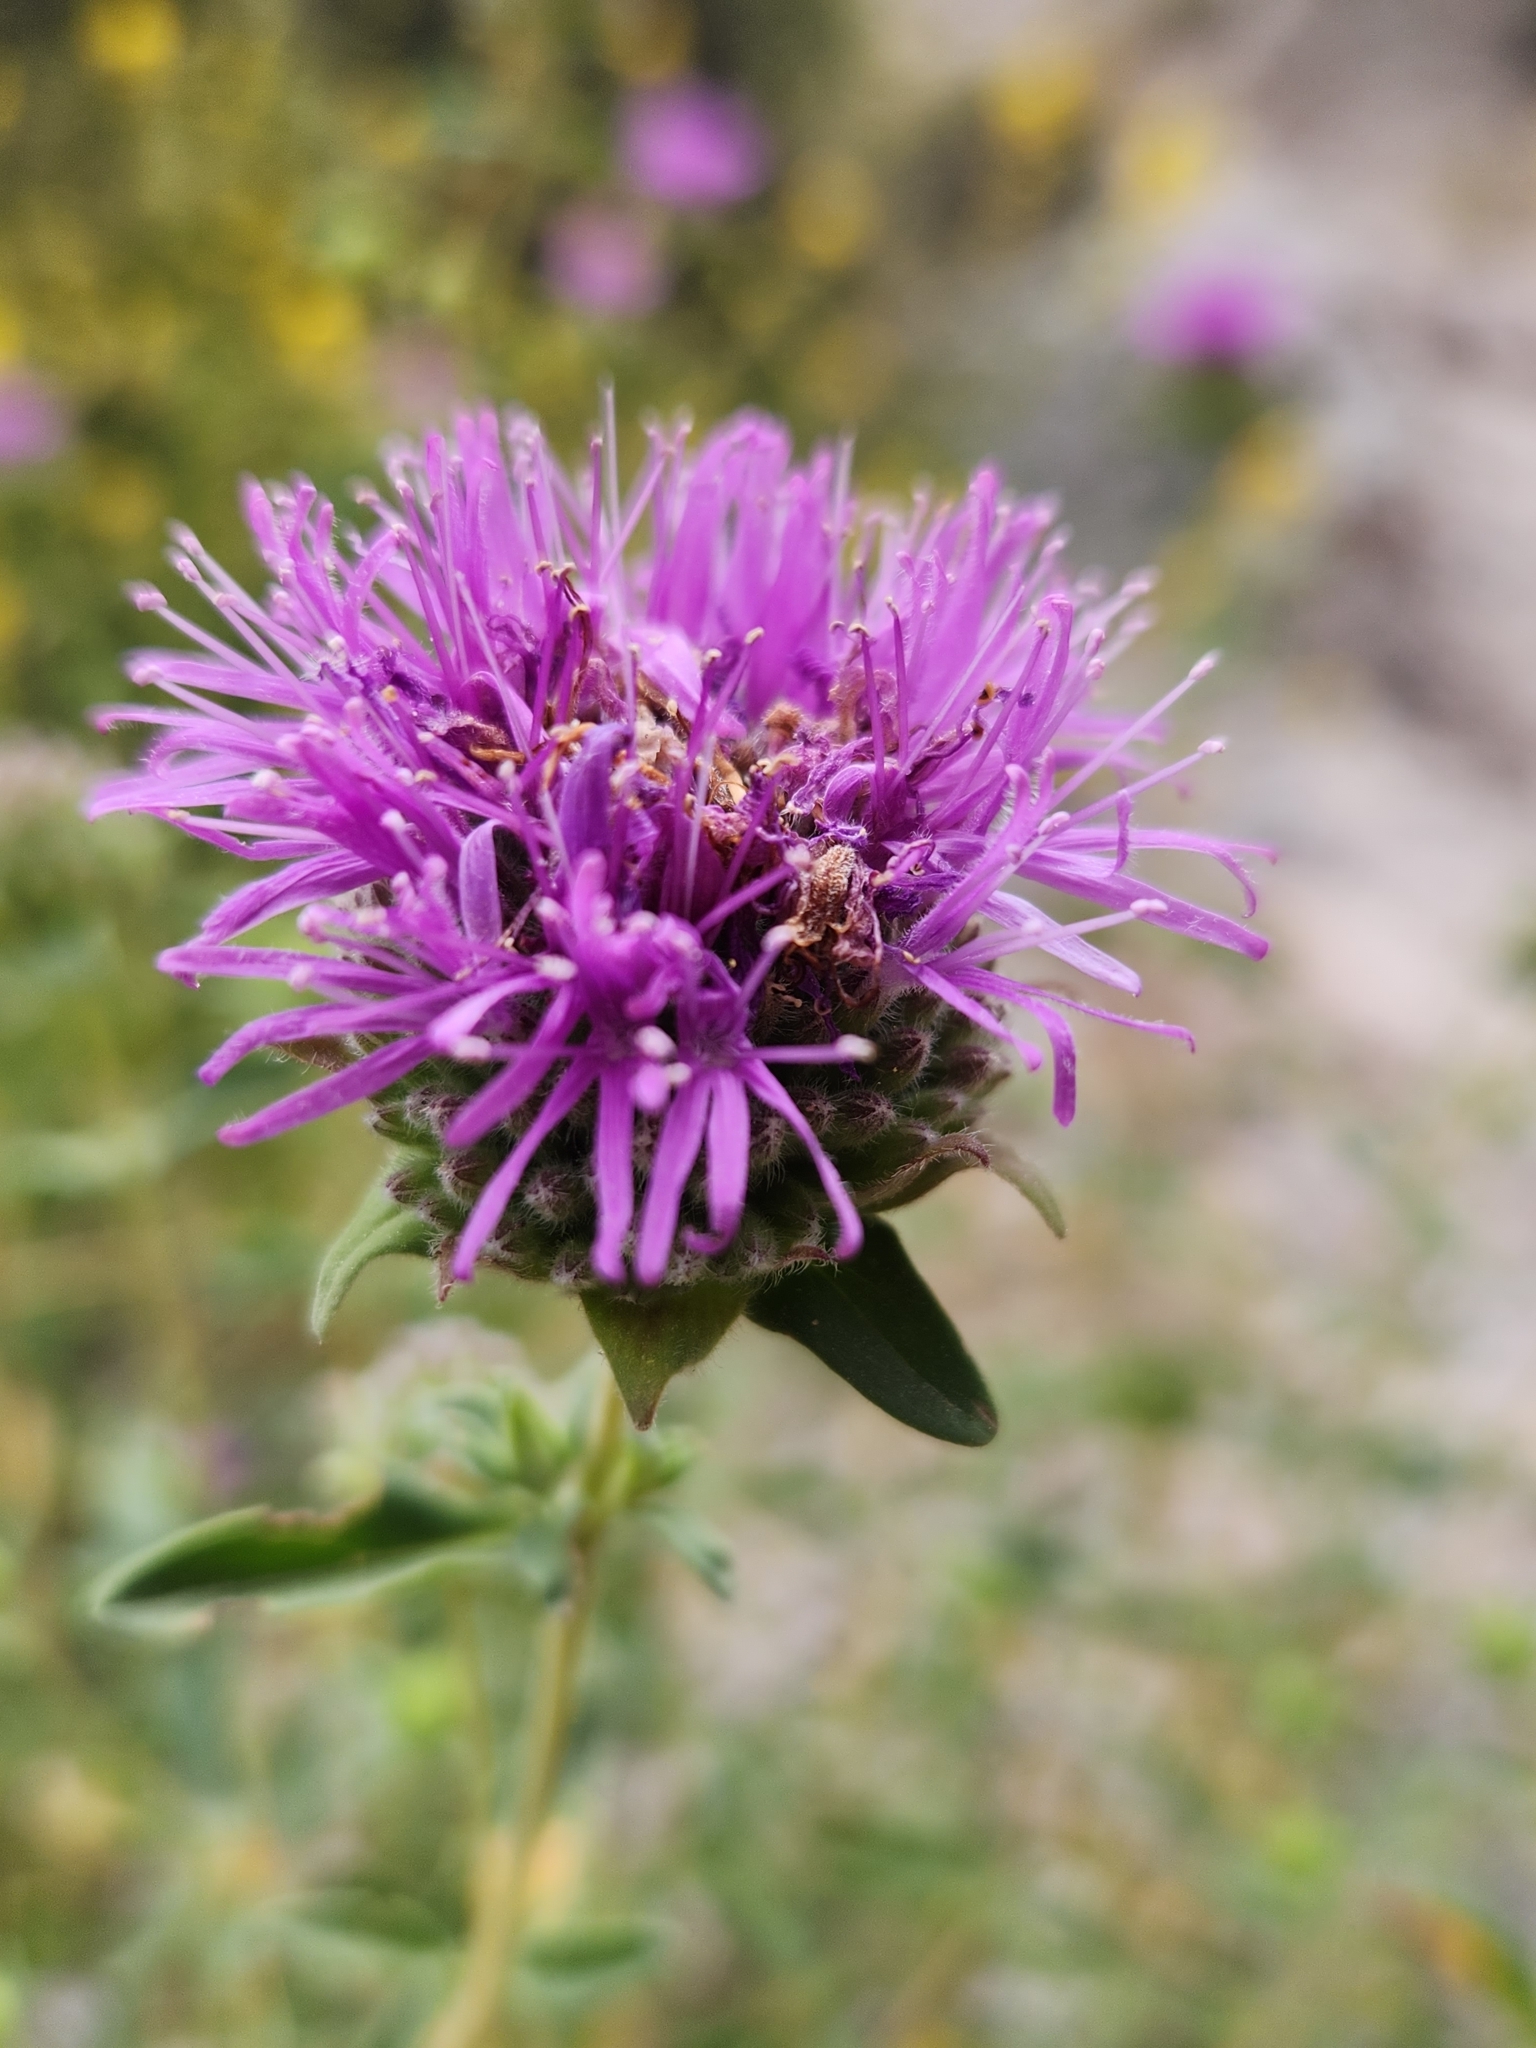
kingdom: Plantae
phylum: Tracheophyta
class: Magnoliopsida
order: Lamiales
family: Lamiaceae
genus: Monardella
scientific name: Monardella odoratissima
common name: Pacific monardella
